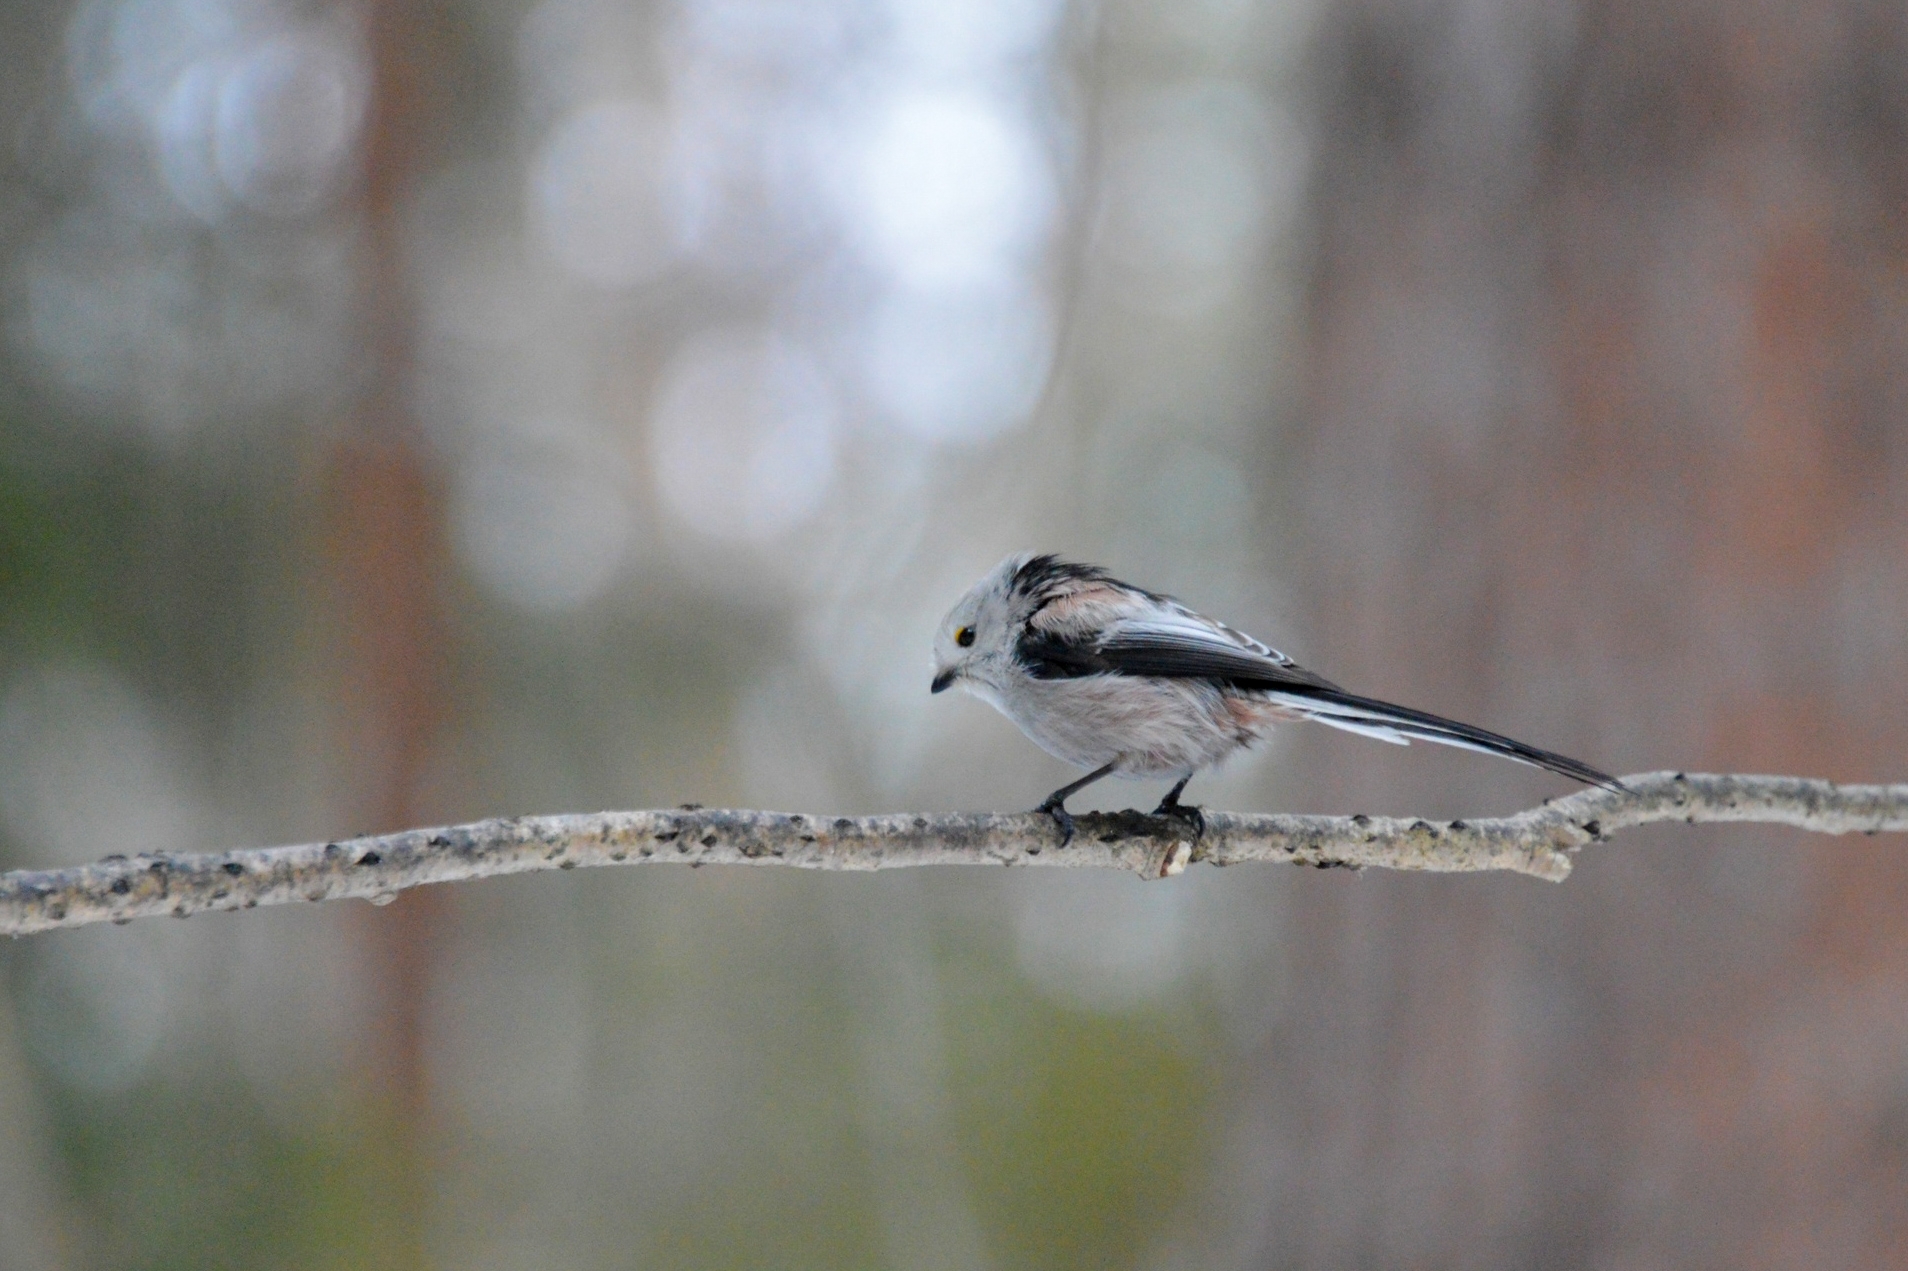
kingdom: Animalia
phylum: Chordata
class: Aves
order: Passeriformes
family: Aegithalidae
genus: Aegithalos
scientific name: Aegithalos caudatus
